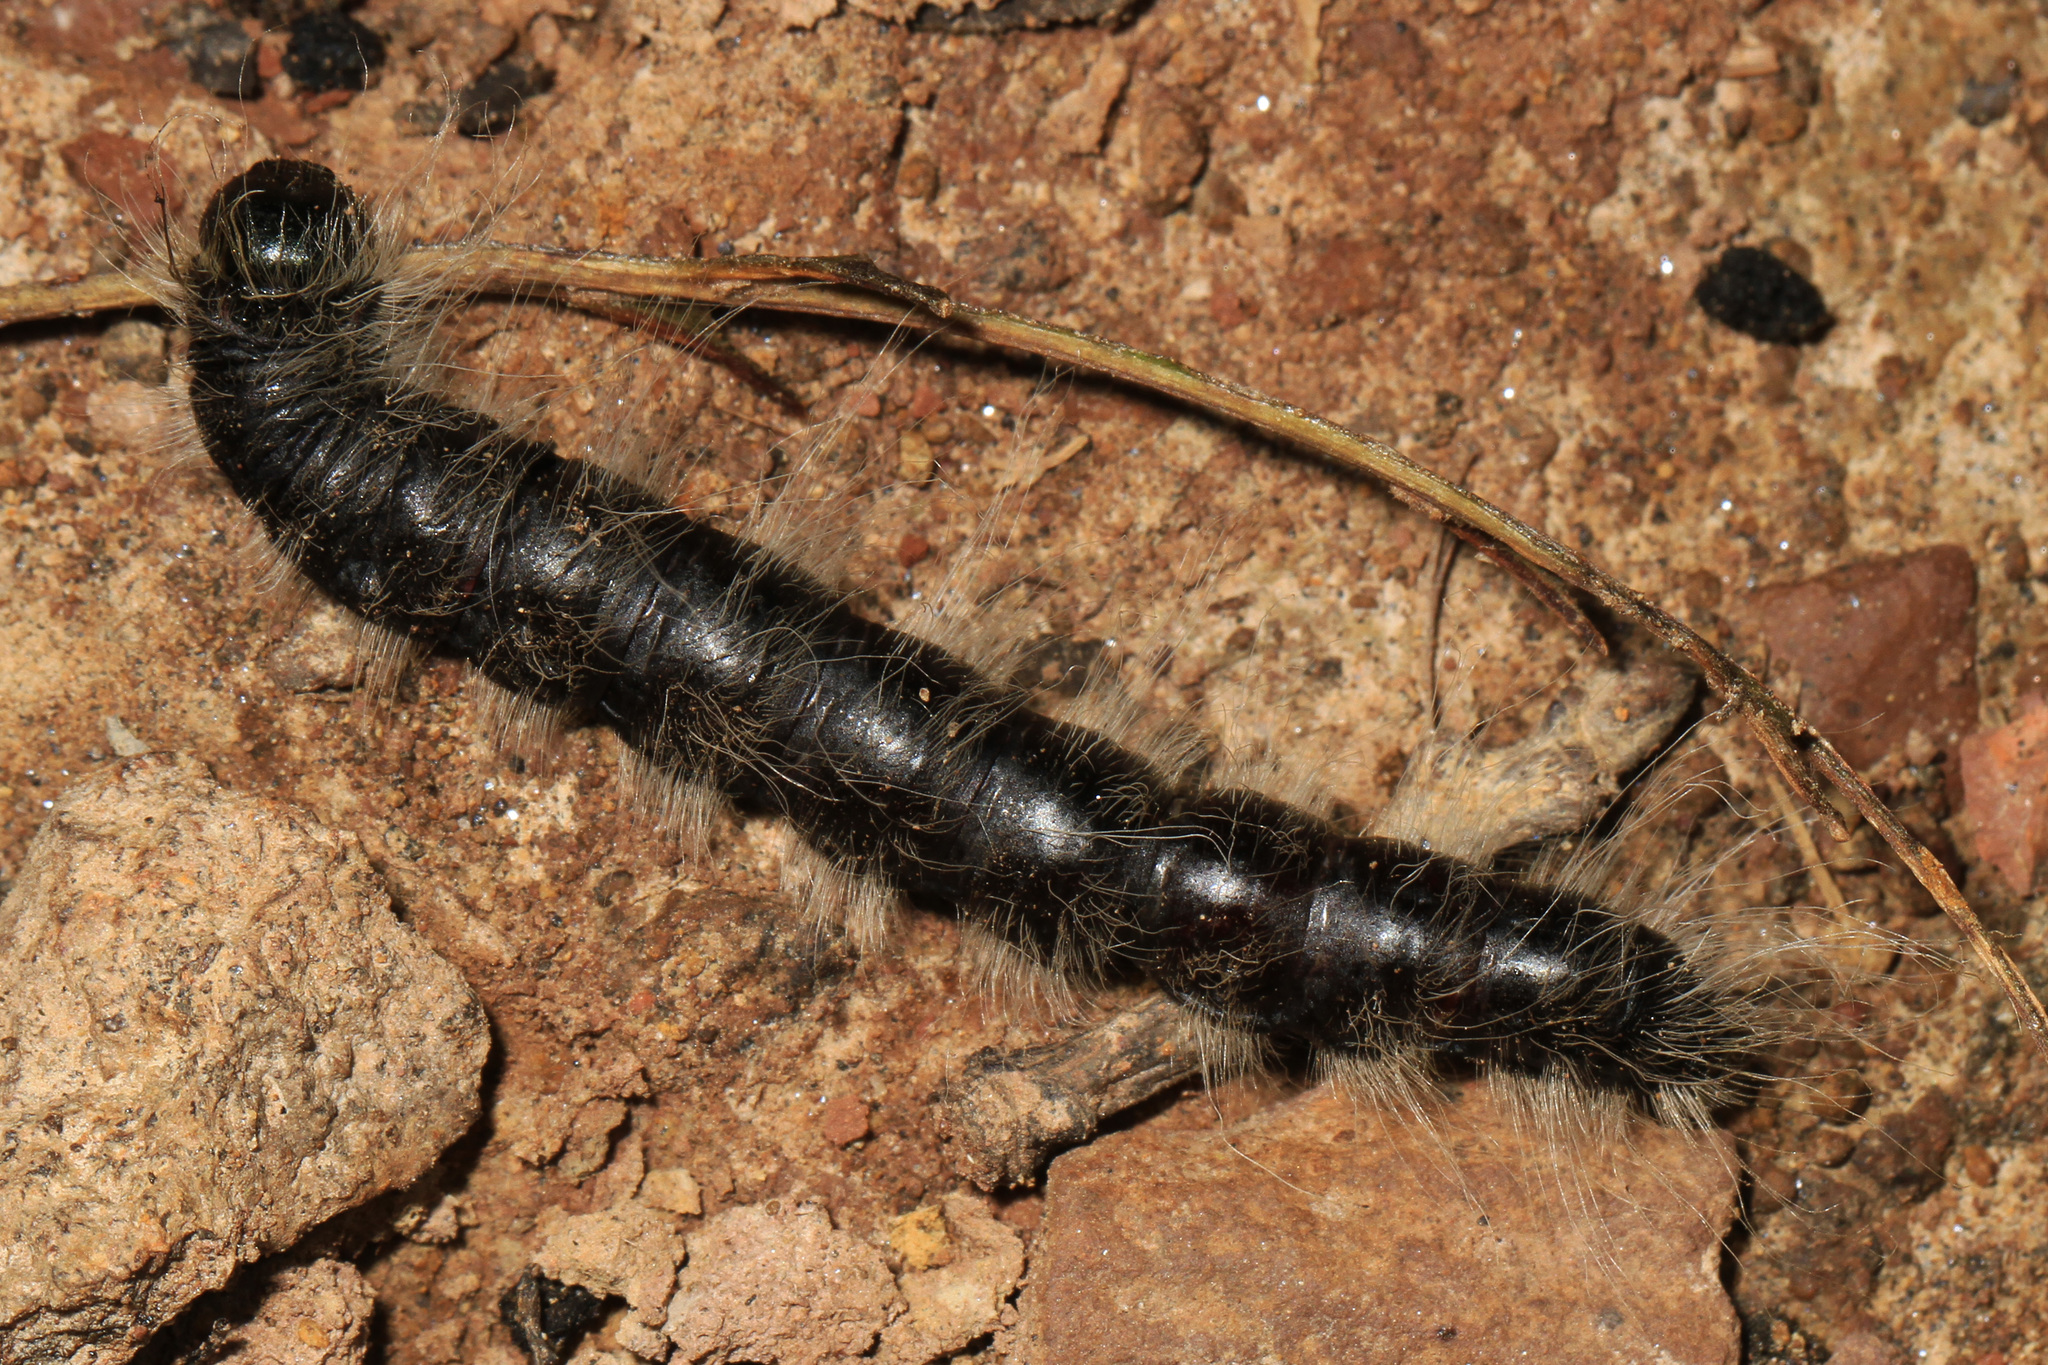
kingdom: Animalia
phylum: Arthropoda
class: Insecta
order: Lepidoptera
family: Notodontidae
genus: Datana
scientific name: Datana integerrima
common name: Walnut caterpillar
